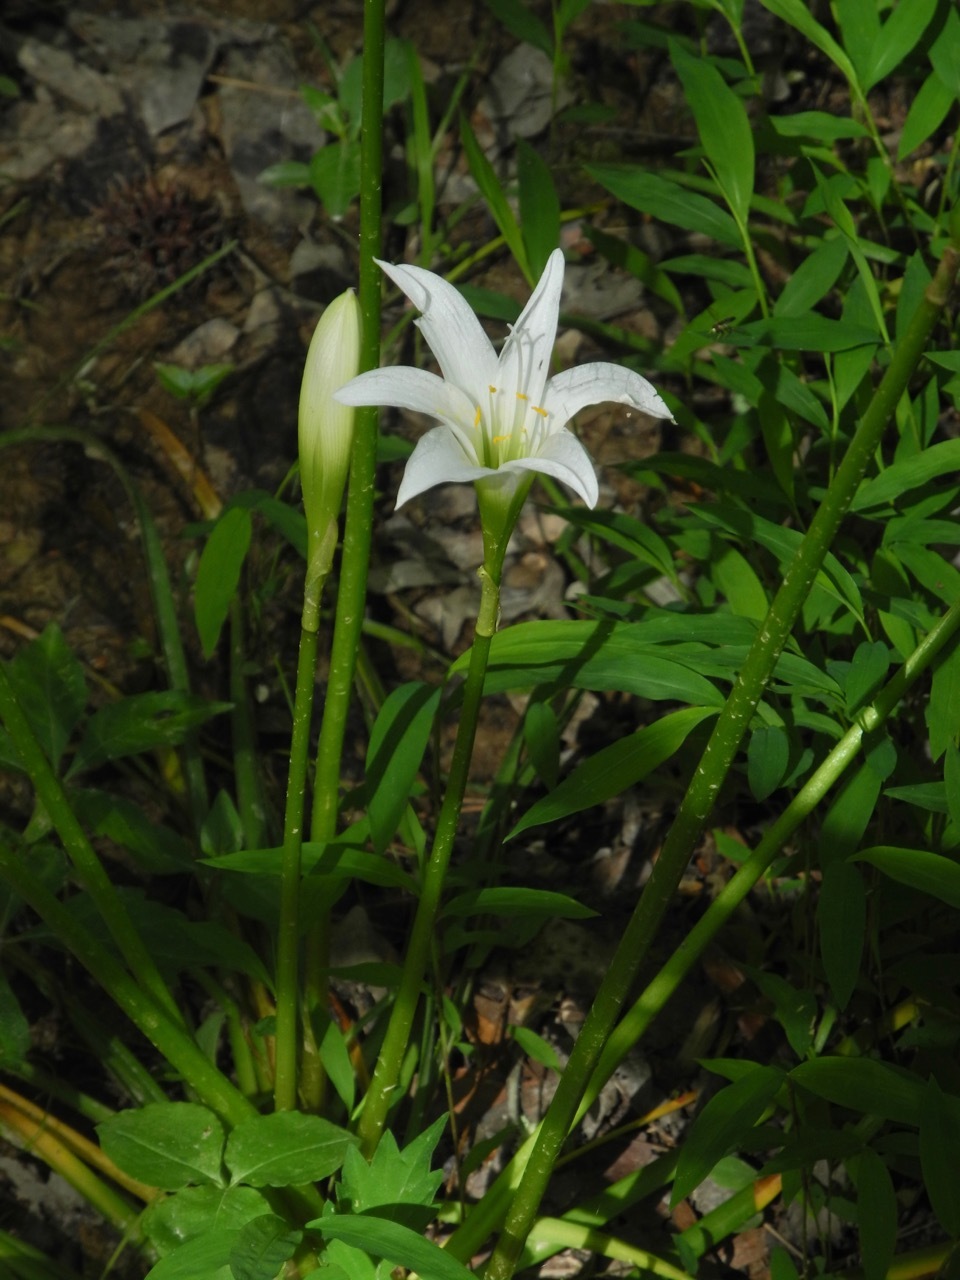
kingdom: Plantae
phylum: Tracheophyta
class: Liliopsida
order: Asparagales
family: Amaryllidaceae
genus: Zephyranthes
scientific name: Zephyranthes atamasco
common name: Atamasco lily
